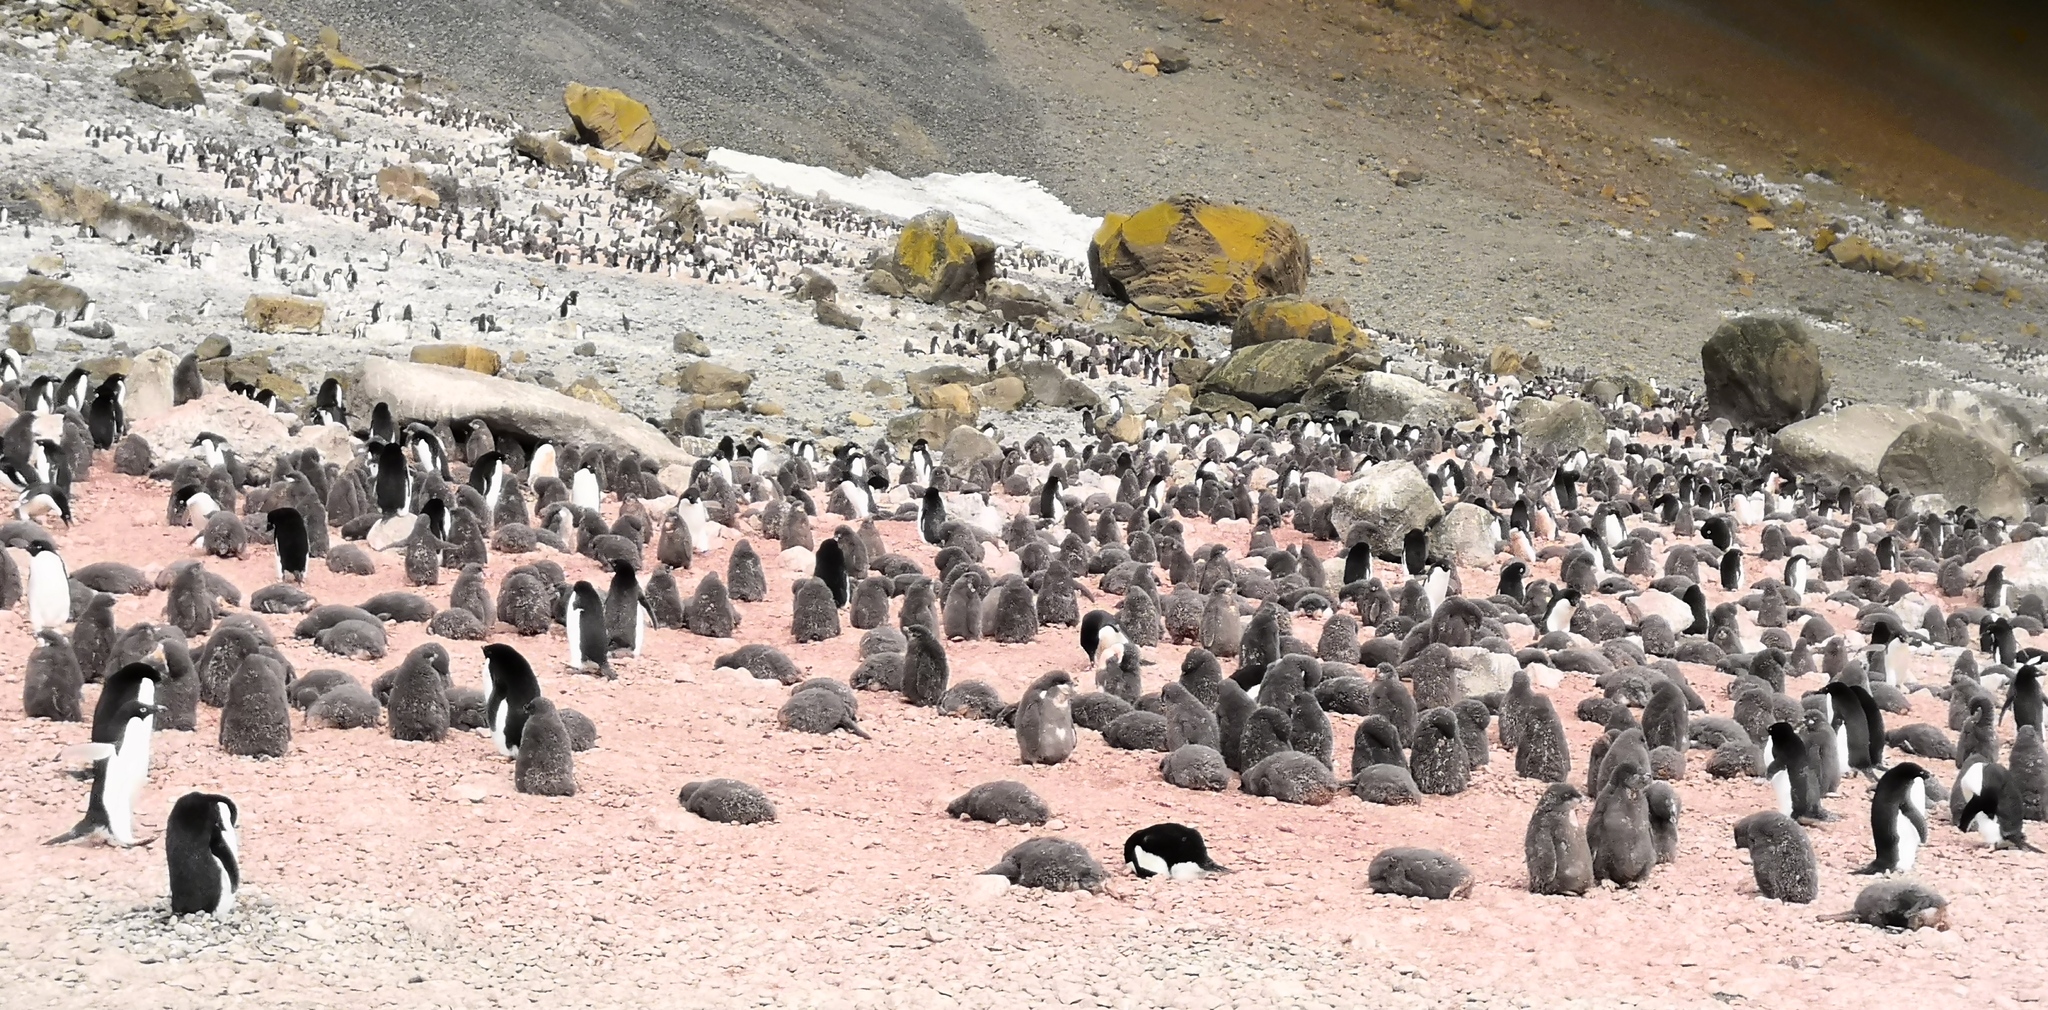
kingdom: Animalia
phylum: Chordata
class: Aves
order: Sphenisciformes
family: Spheniscidae
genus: Pygoscelis
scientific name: Pygoscelis adeliae
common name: Adelie penguin
